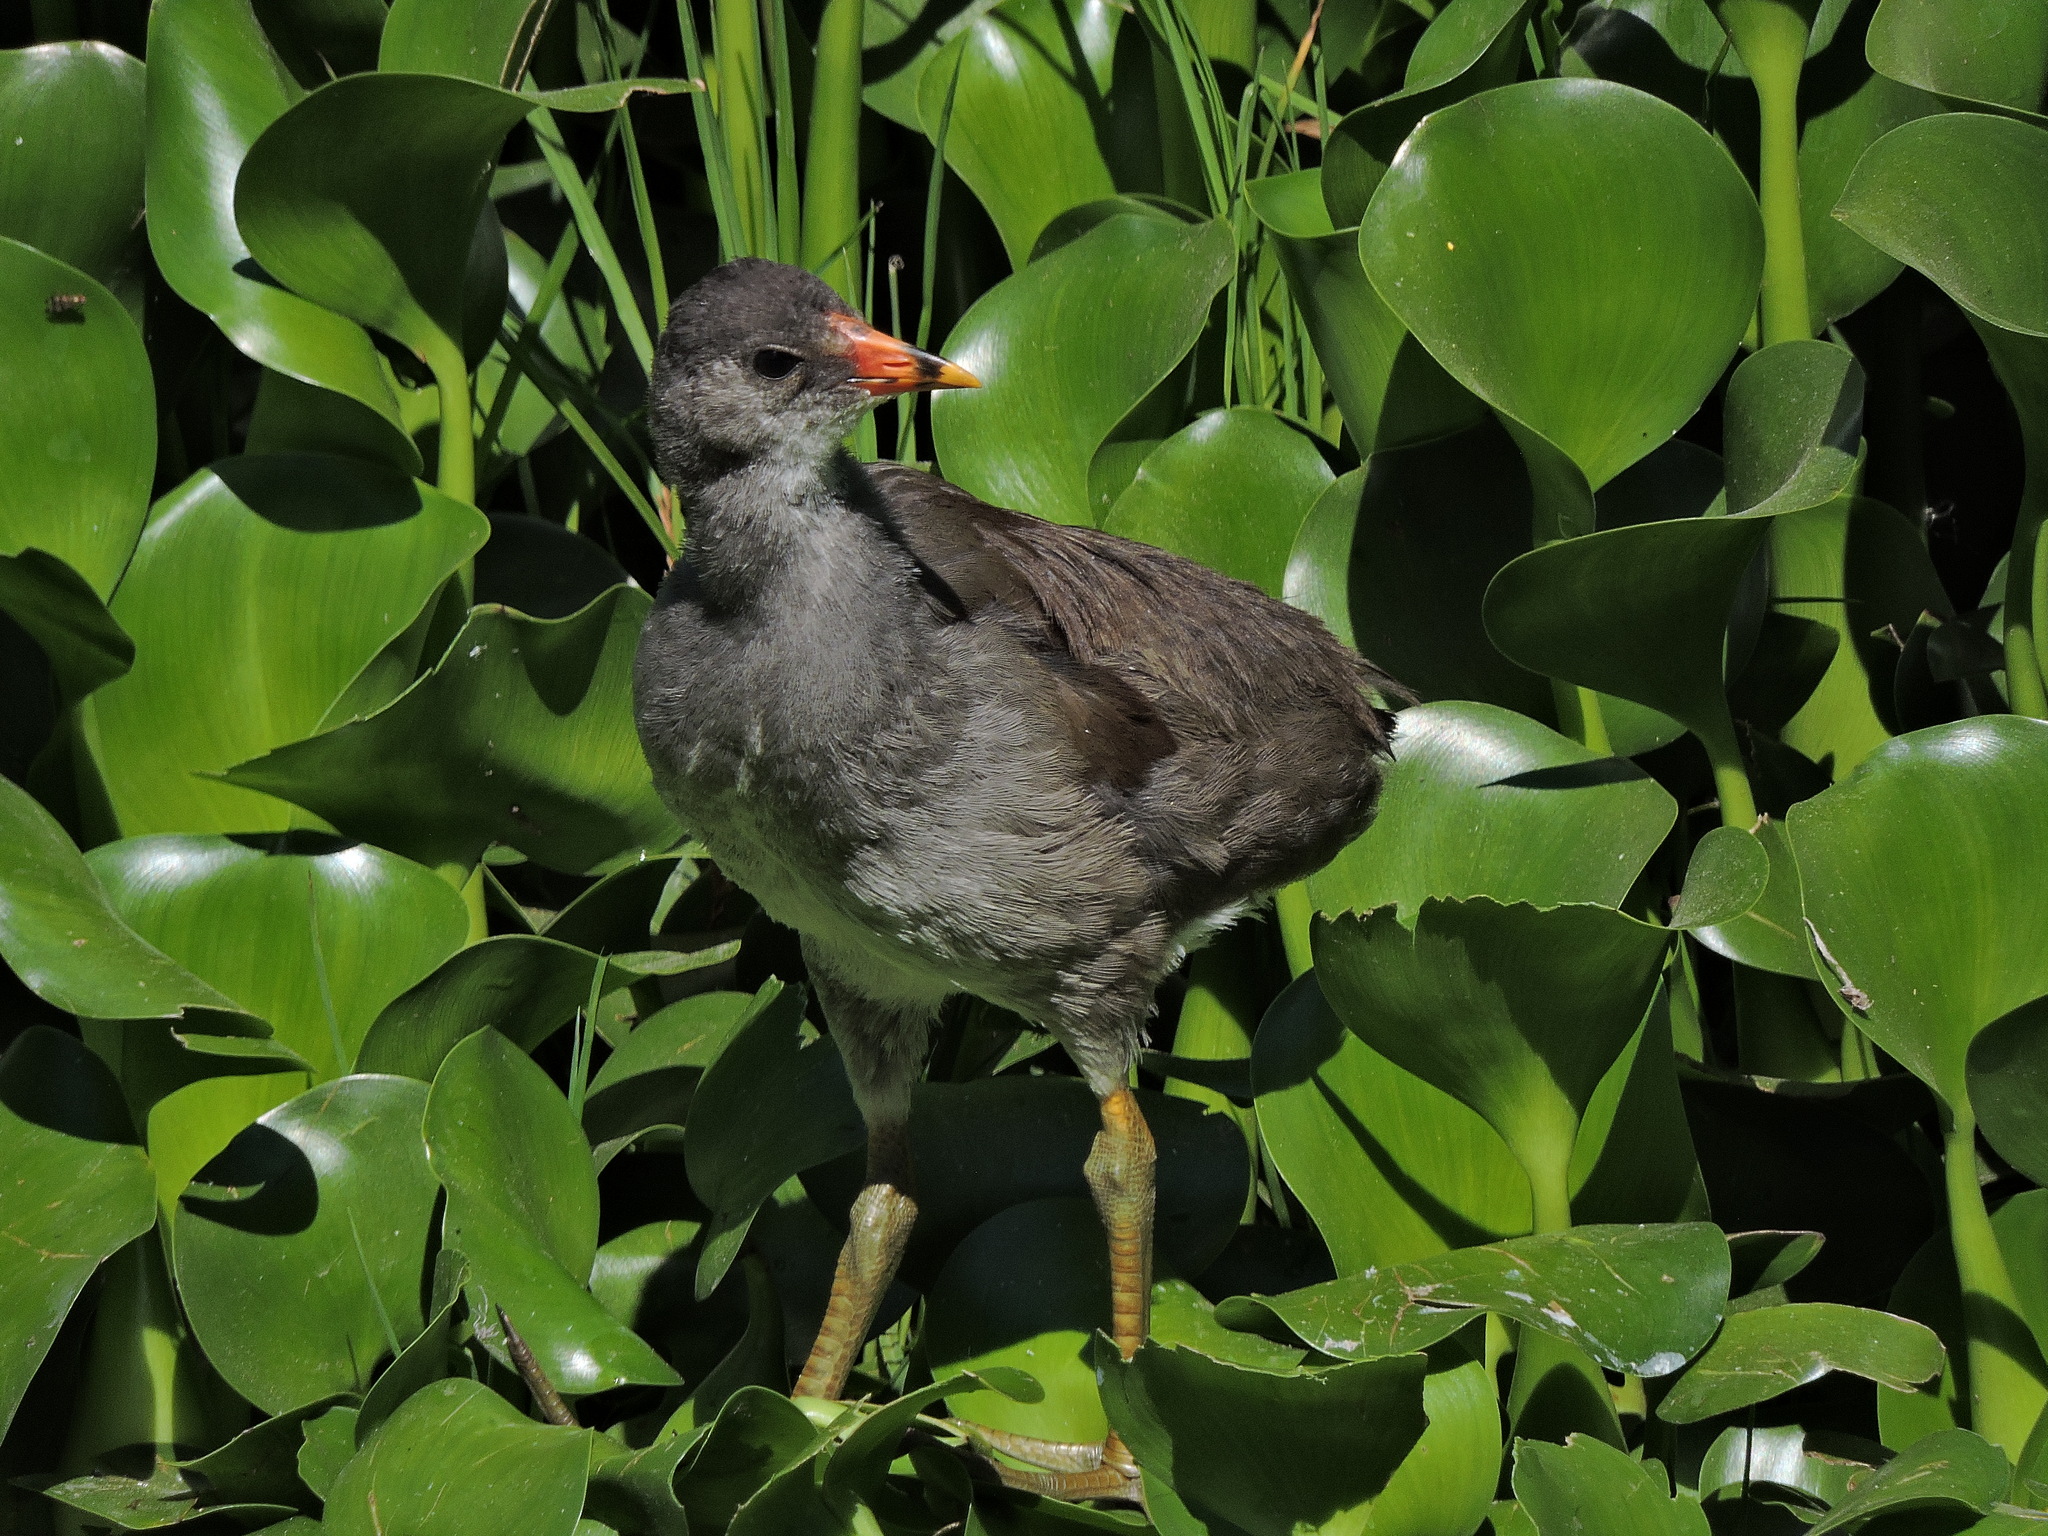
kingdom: Animalia
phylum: Chordata
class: Aves
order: Gruiformes
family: Rallidae
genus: Gallinula
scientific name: Gallinula chloropus
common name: Common moorhen
